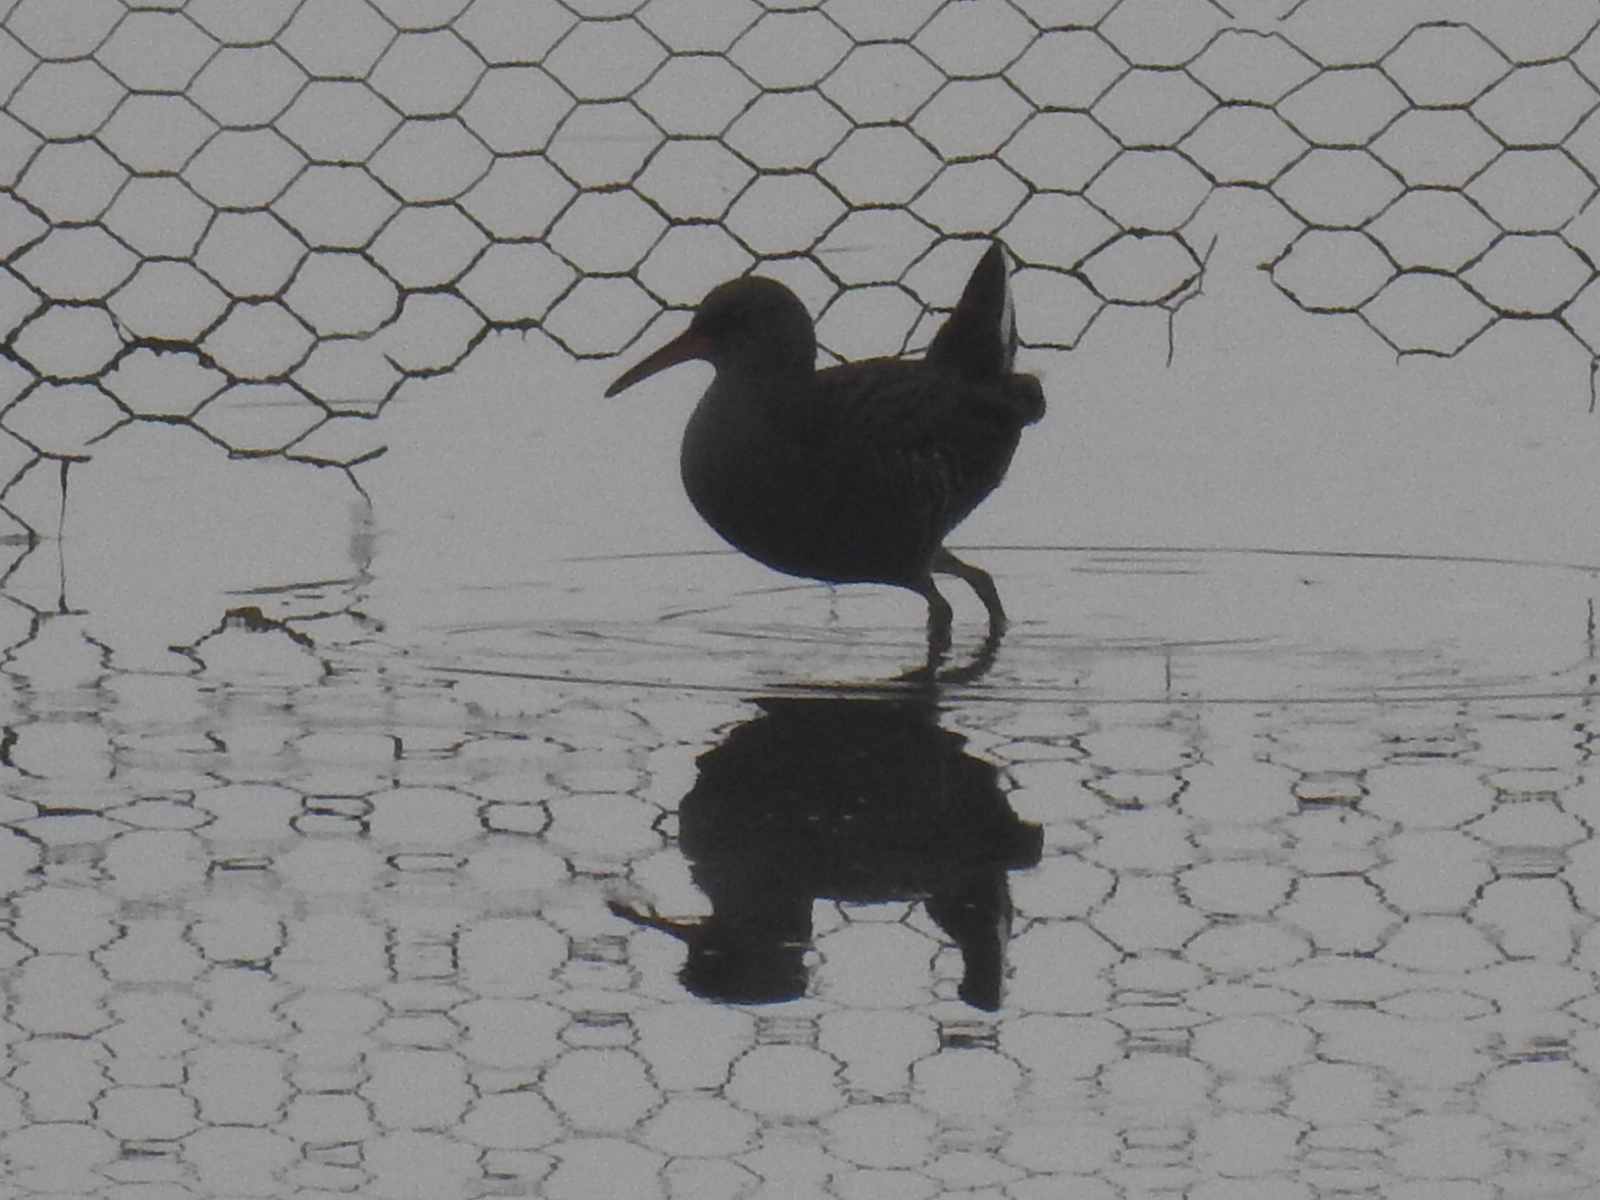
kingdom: Animalia
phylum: Chordata
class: Aves
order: Gruiformes
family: Rallidae
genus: Rallus
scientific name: Rallus aquaticus
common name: Water rail
